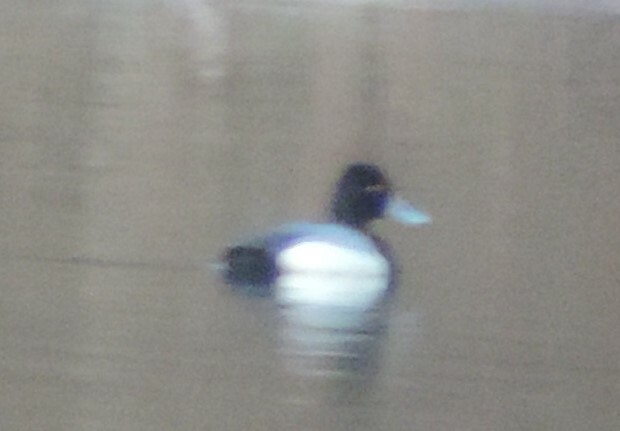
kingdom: Animalia
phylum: Chordata
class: Aves
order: Anseriformes
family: Anatidae
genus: Aythya
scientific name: Aythya affinis
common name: Lesser scaup
